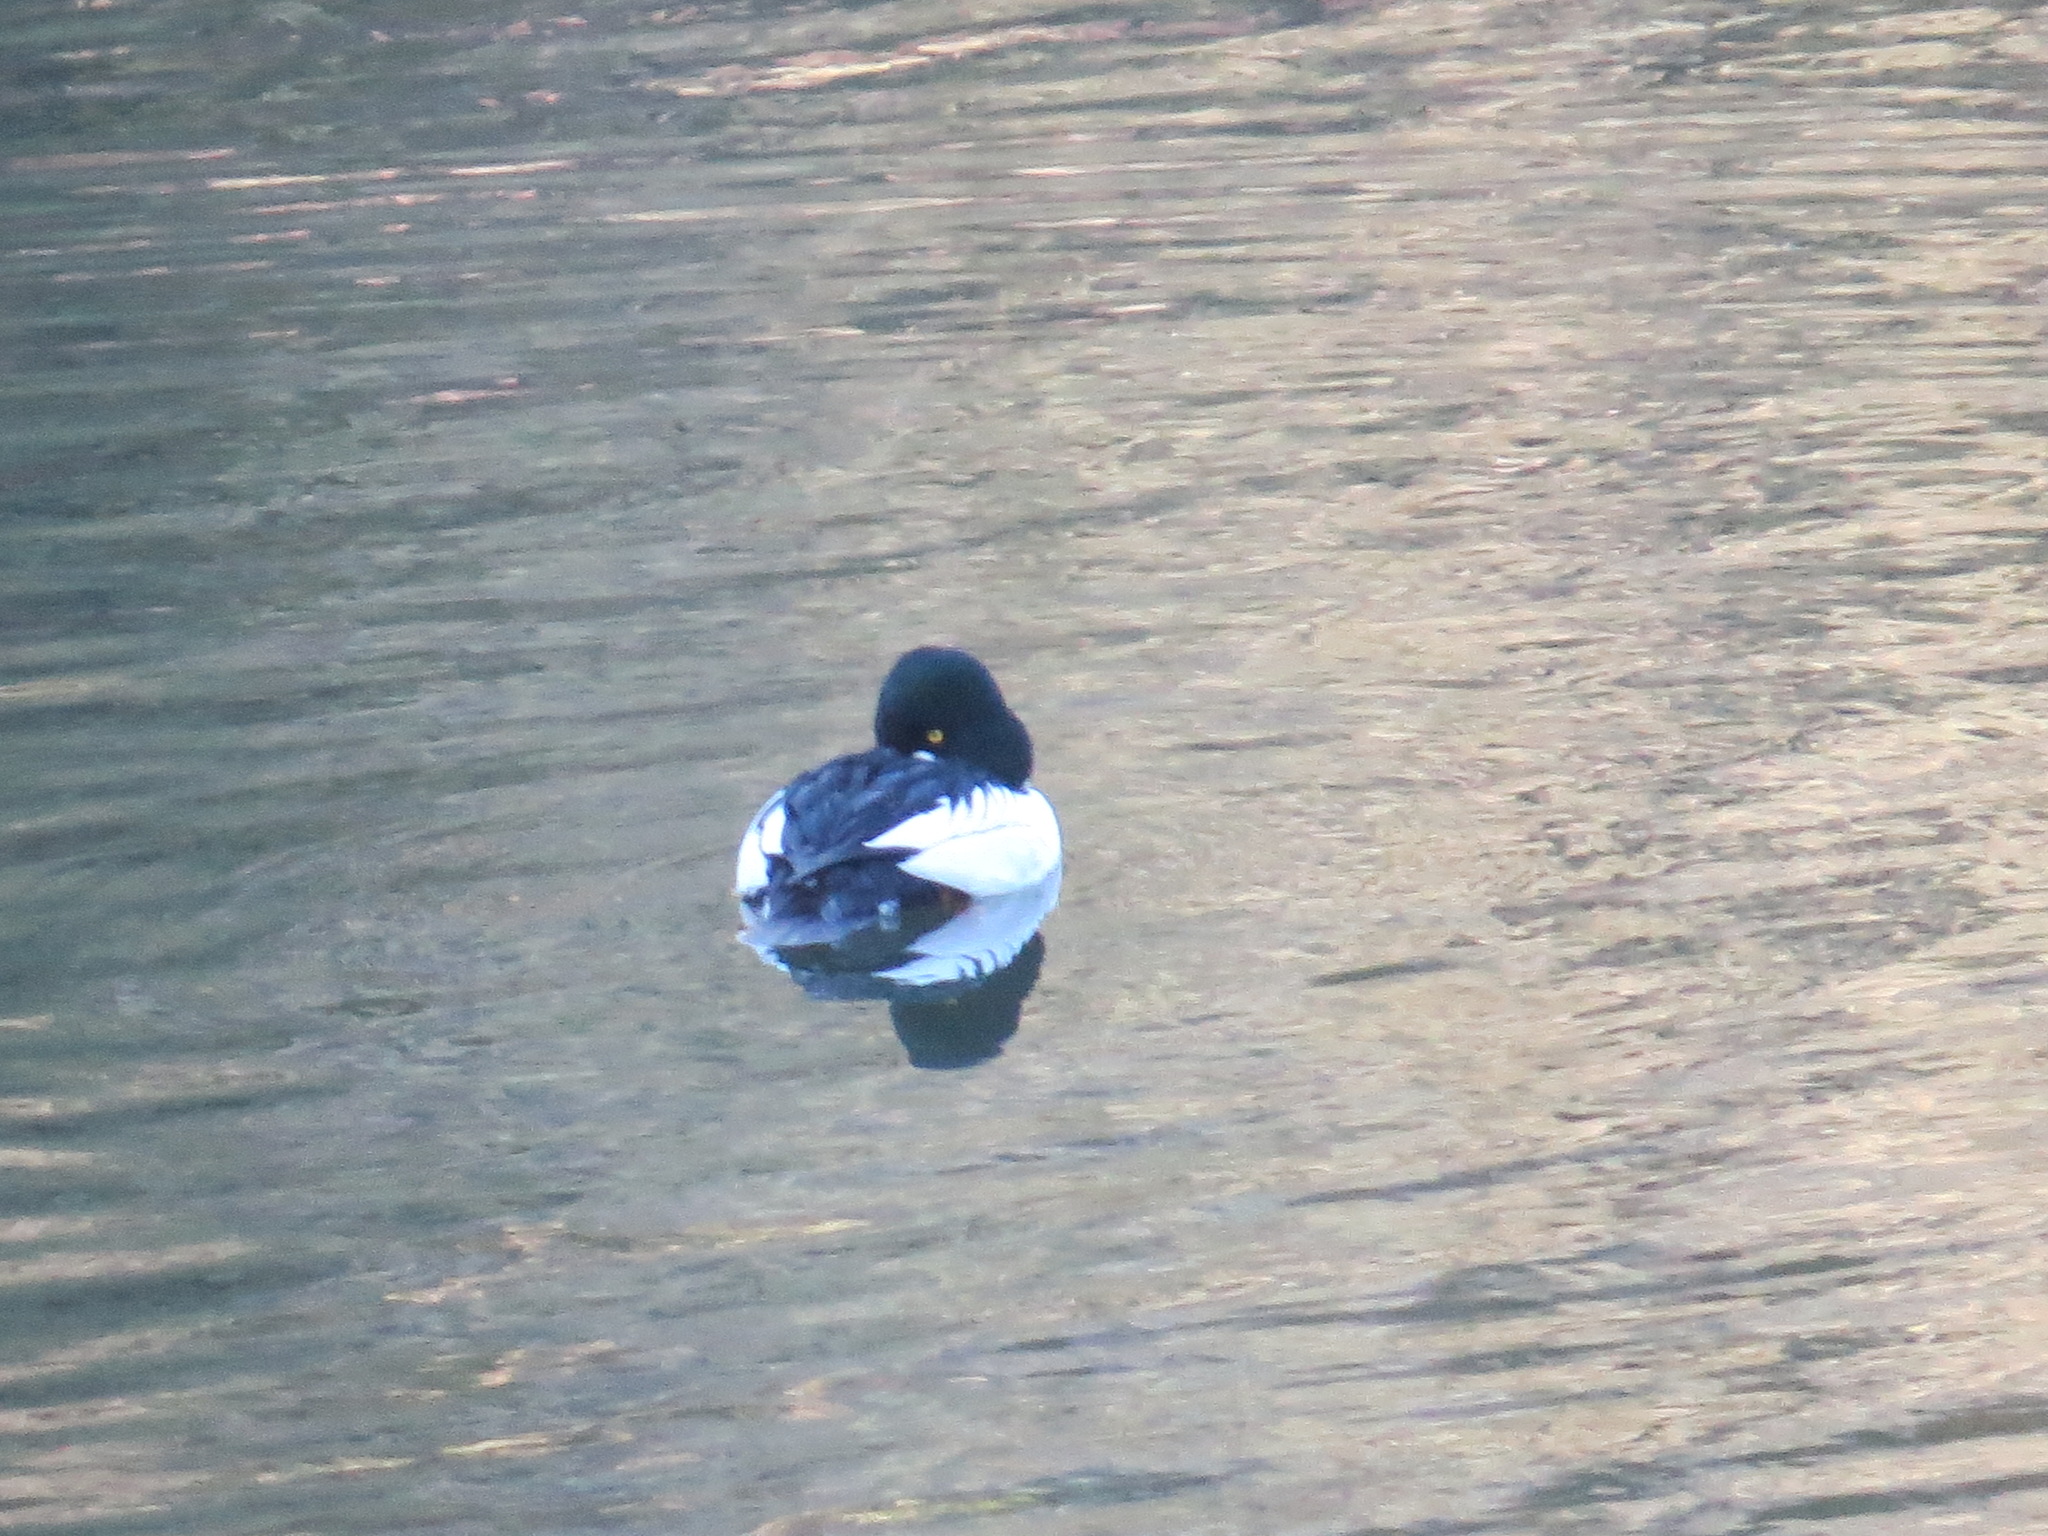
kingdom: Animalia
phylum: Chordata
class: Aves
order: Anseriformes
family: Anatidae
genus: Bucephala
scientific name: Bucephala clangula
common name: Common goldeneye
